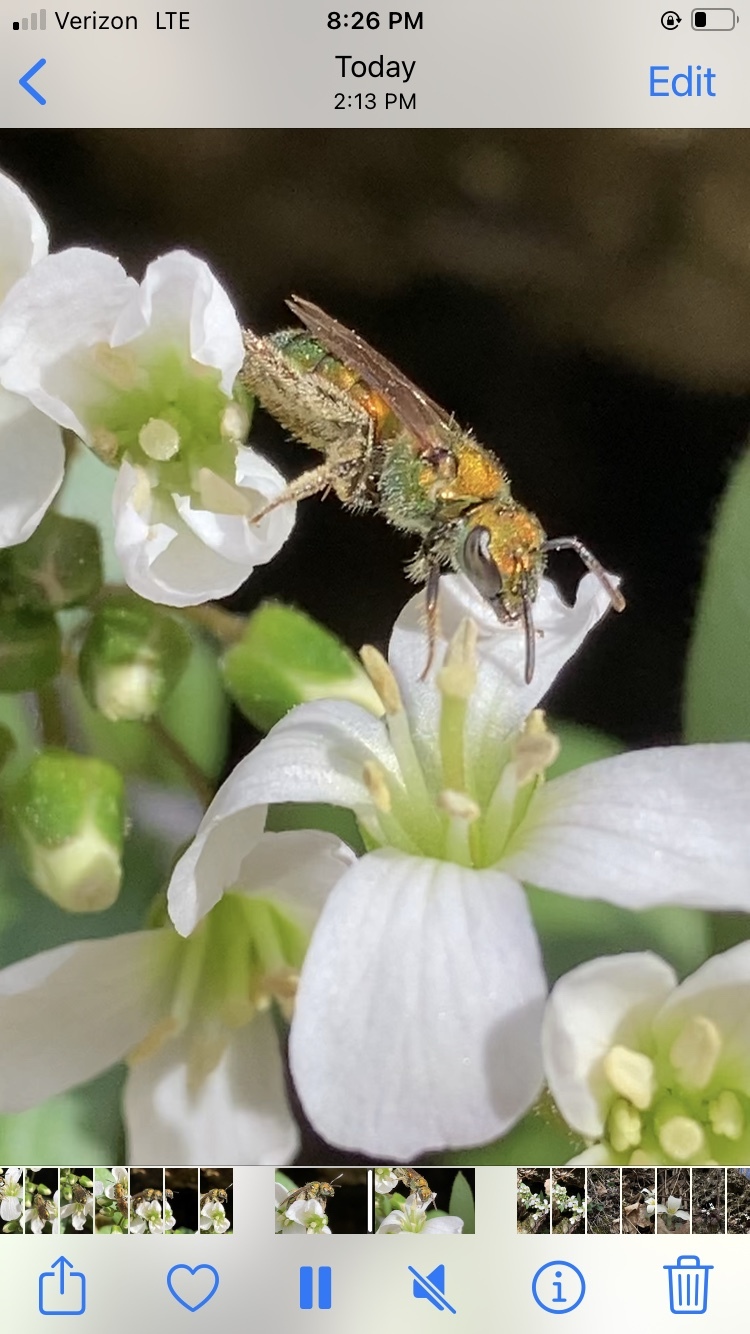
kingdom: Animalia
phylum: Arthropoda
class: Insecta
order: Hymenoptera
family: Halictidae
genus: Augochlora
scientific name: Augochlora pura
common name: Pure green sweat bee
